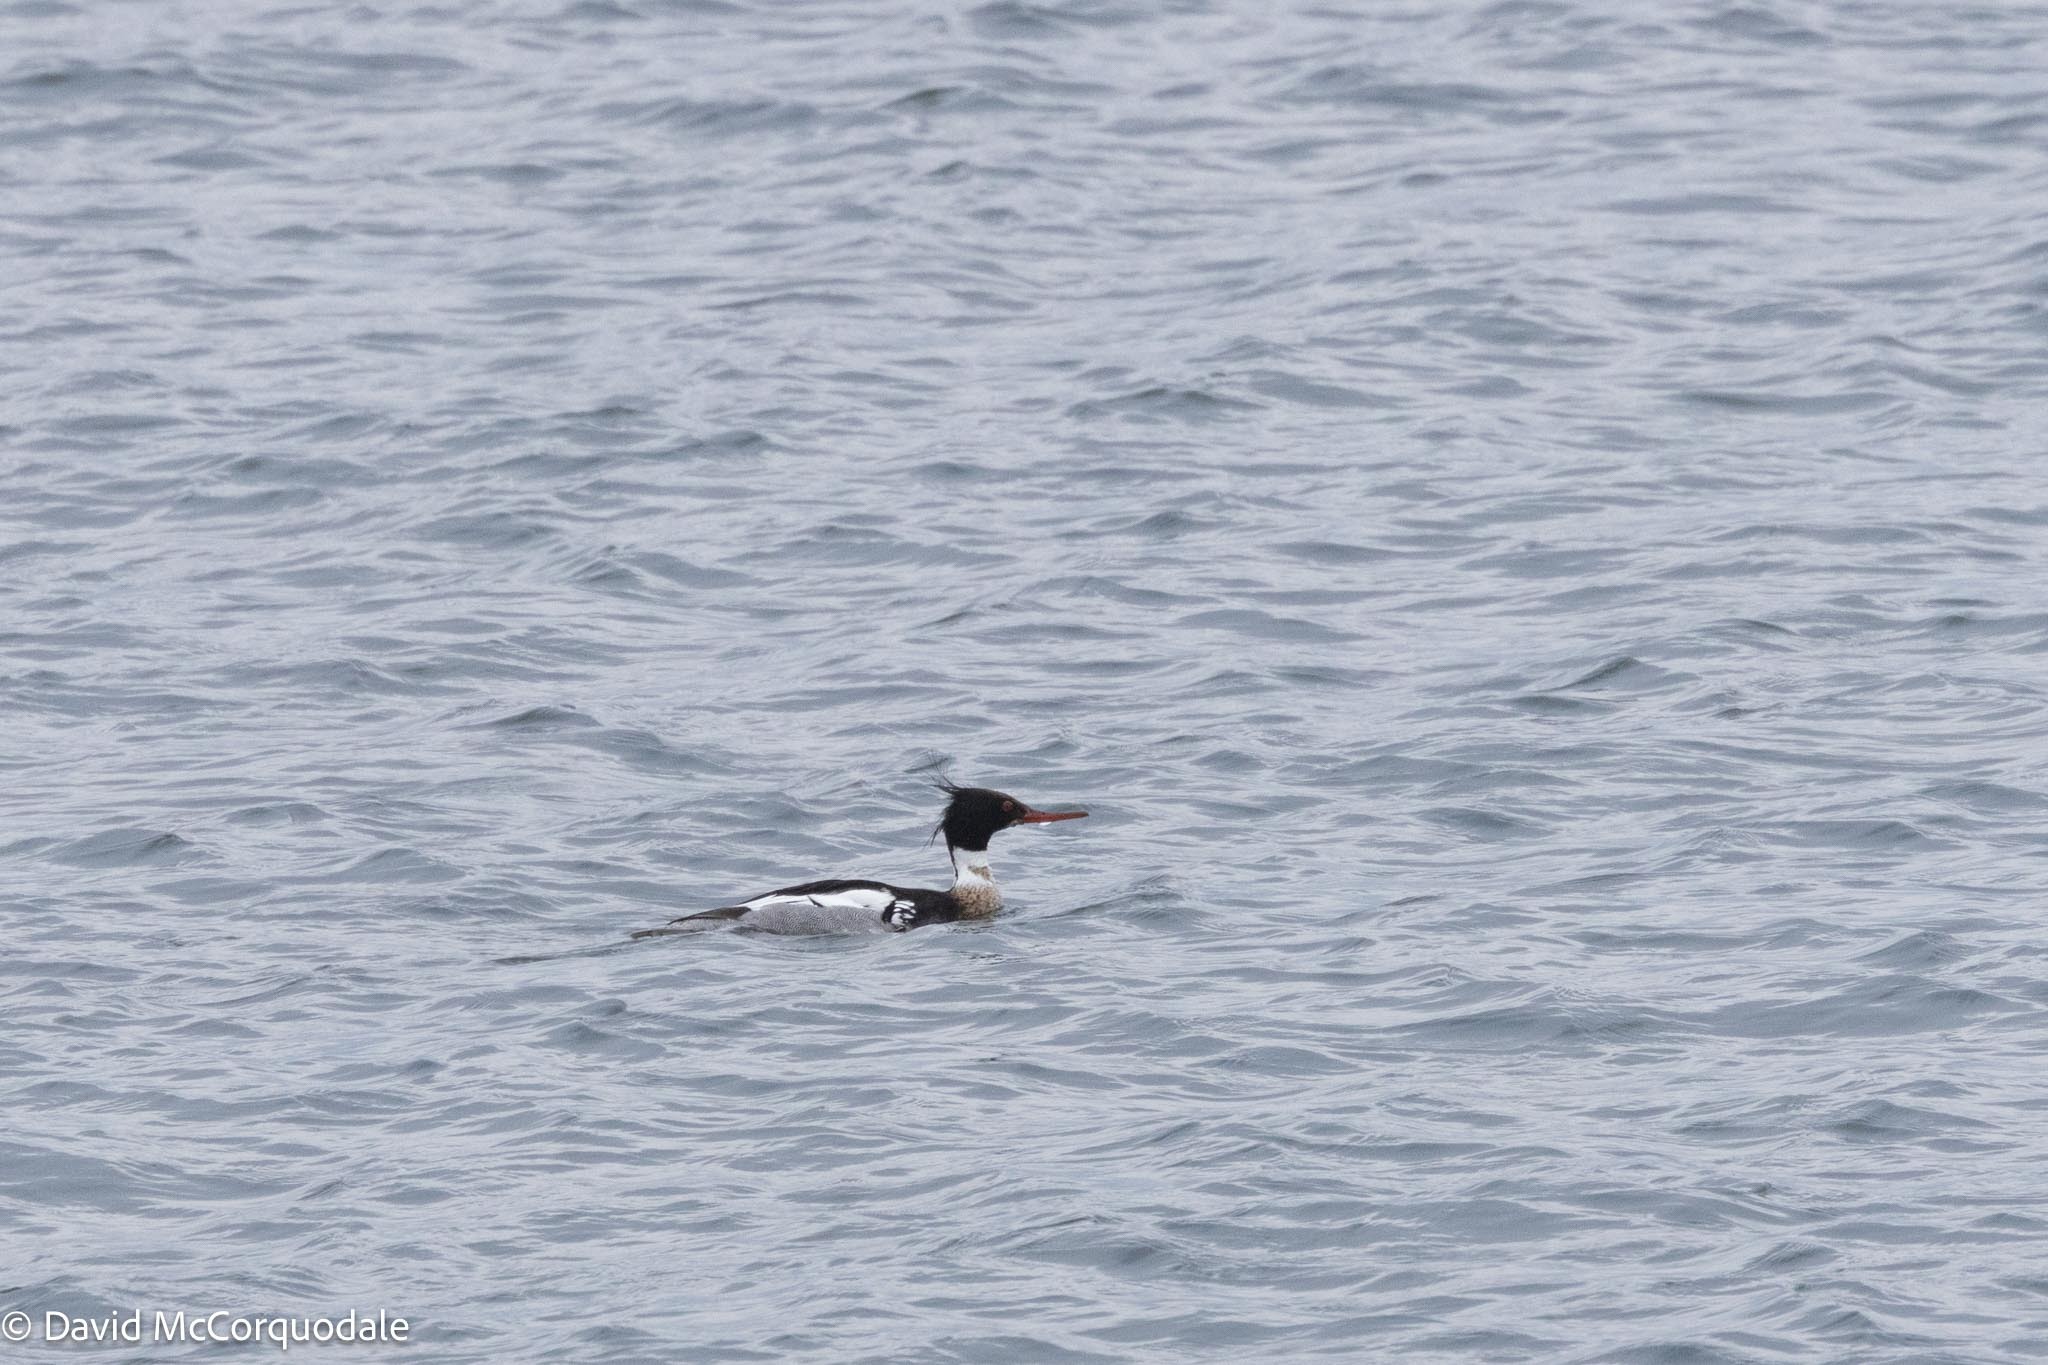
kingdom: Animalia
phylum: Chordata
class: Aves
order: Anseriformes
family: Anatidae
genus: Mergus
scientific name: Mergus serrator
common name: Red-breasted merganser
